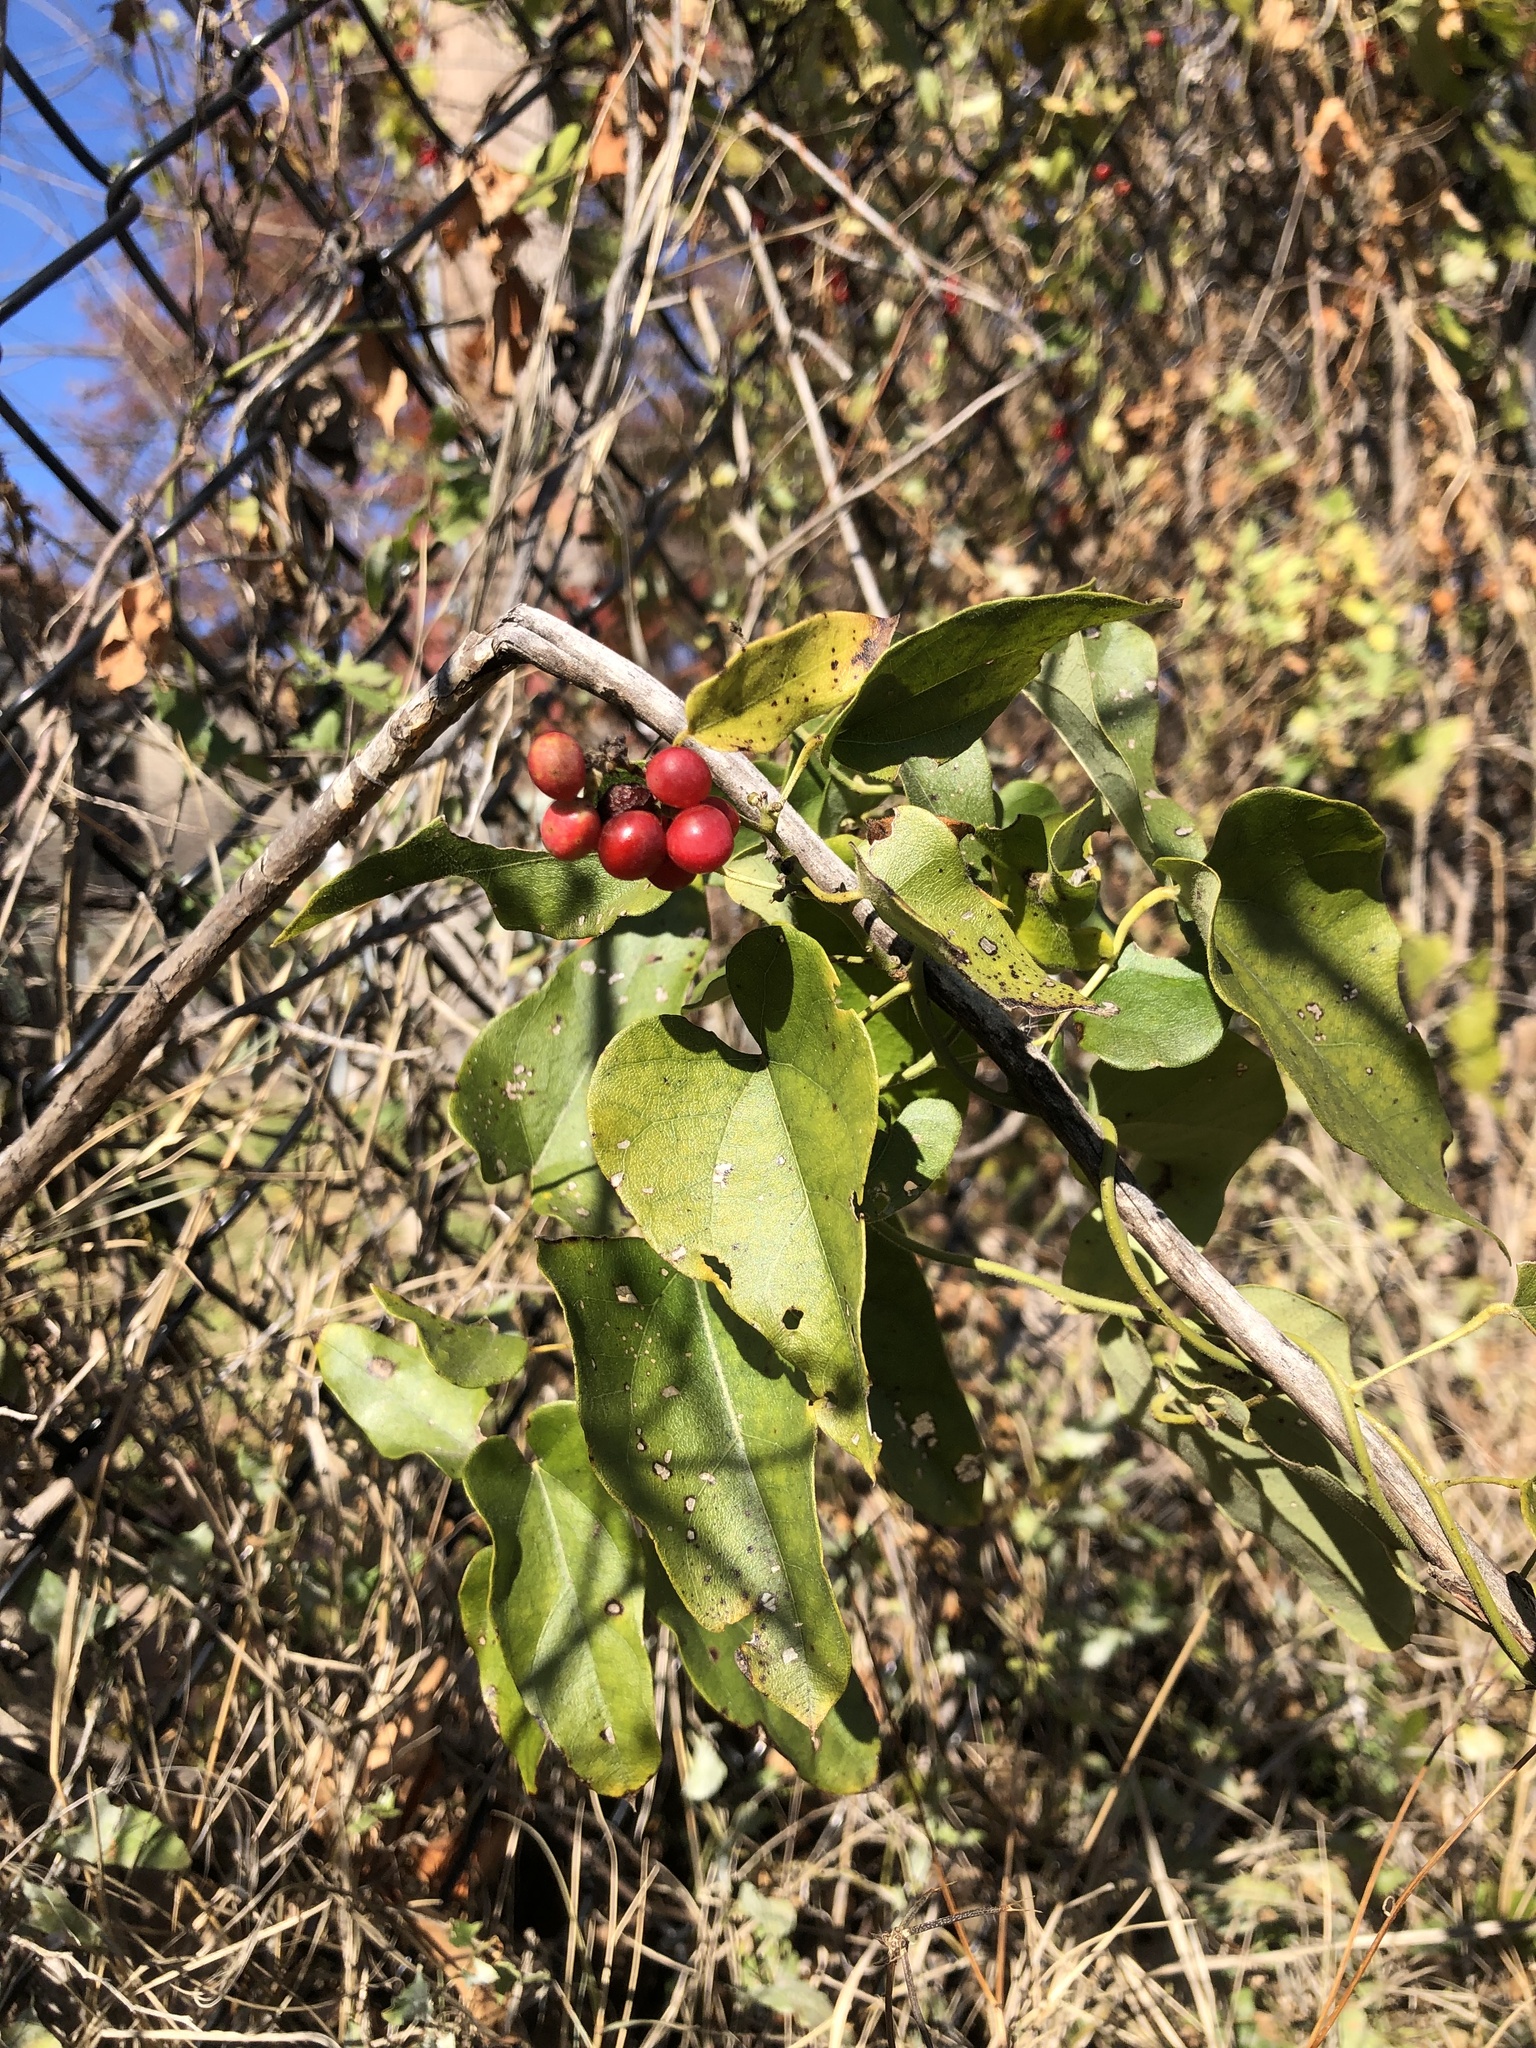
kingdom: Plantae
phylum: Tracheophyta
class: Magnoliopsida
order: Ranunculales
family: Menispermaceae
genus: Cocculus
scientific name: Cocculus carolinus
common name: Carolina moonseed
